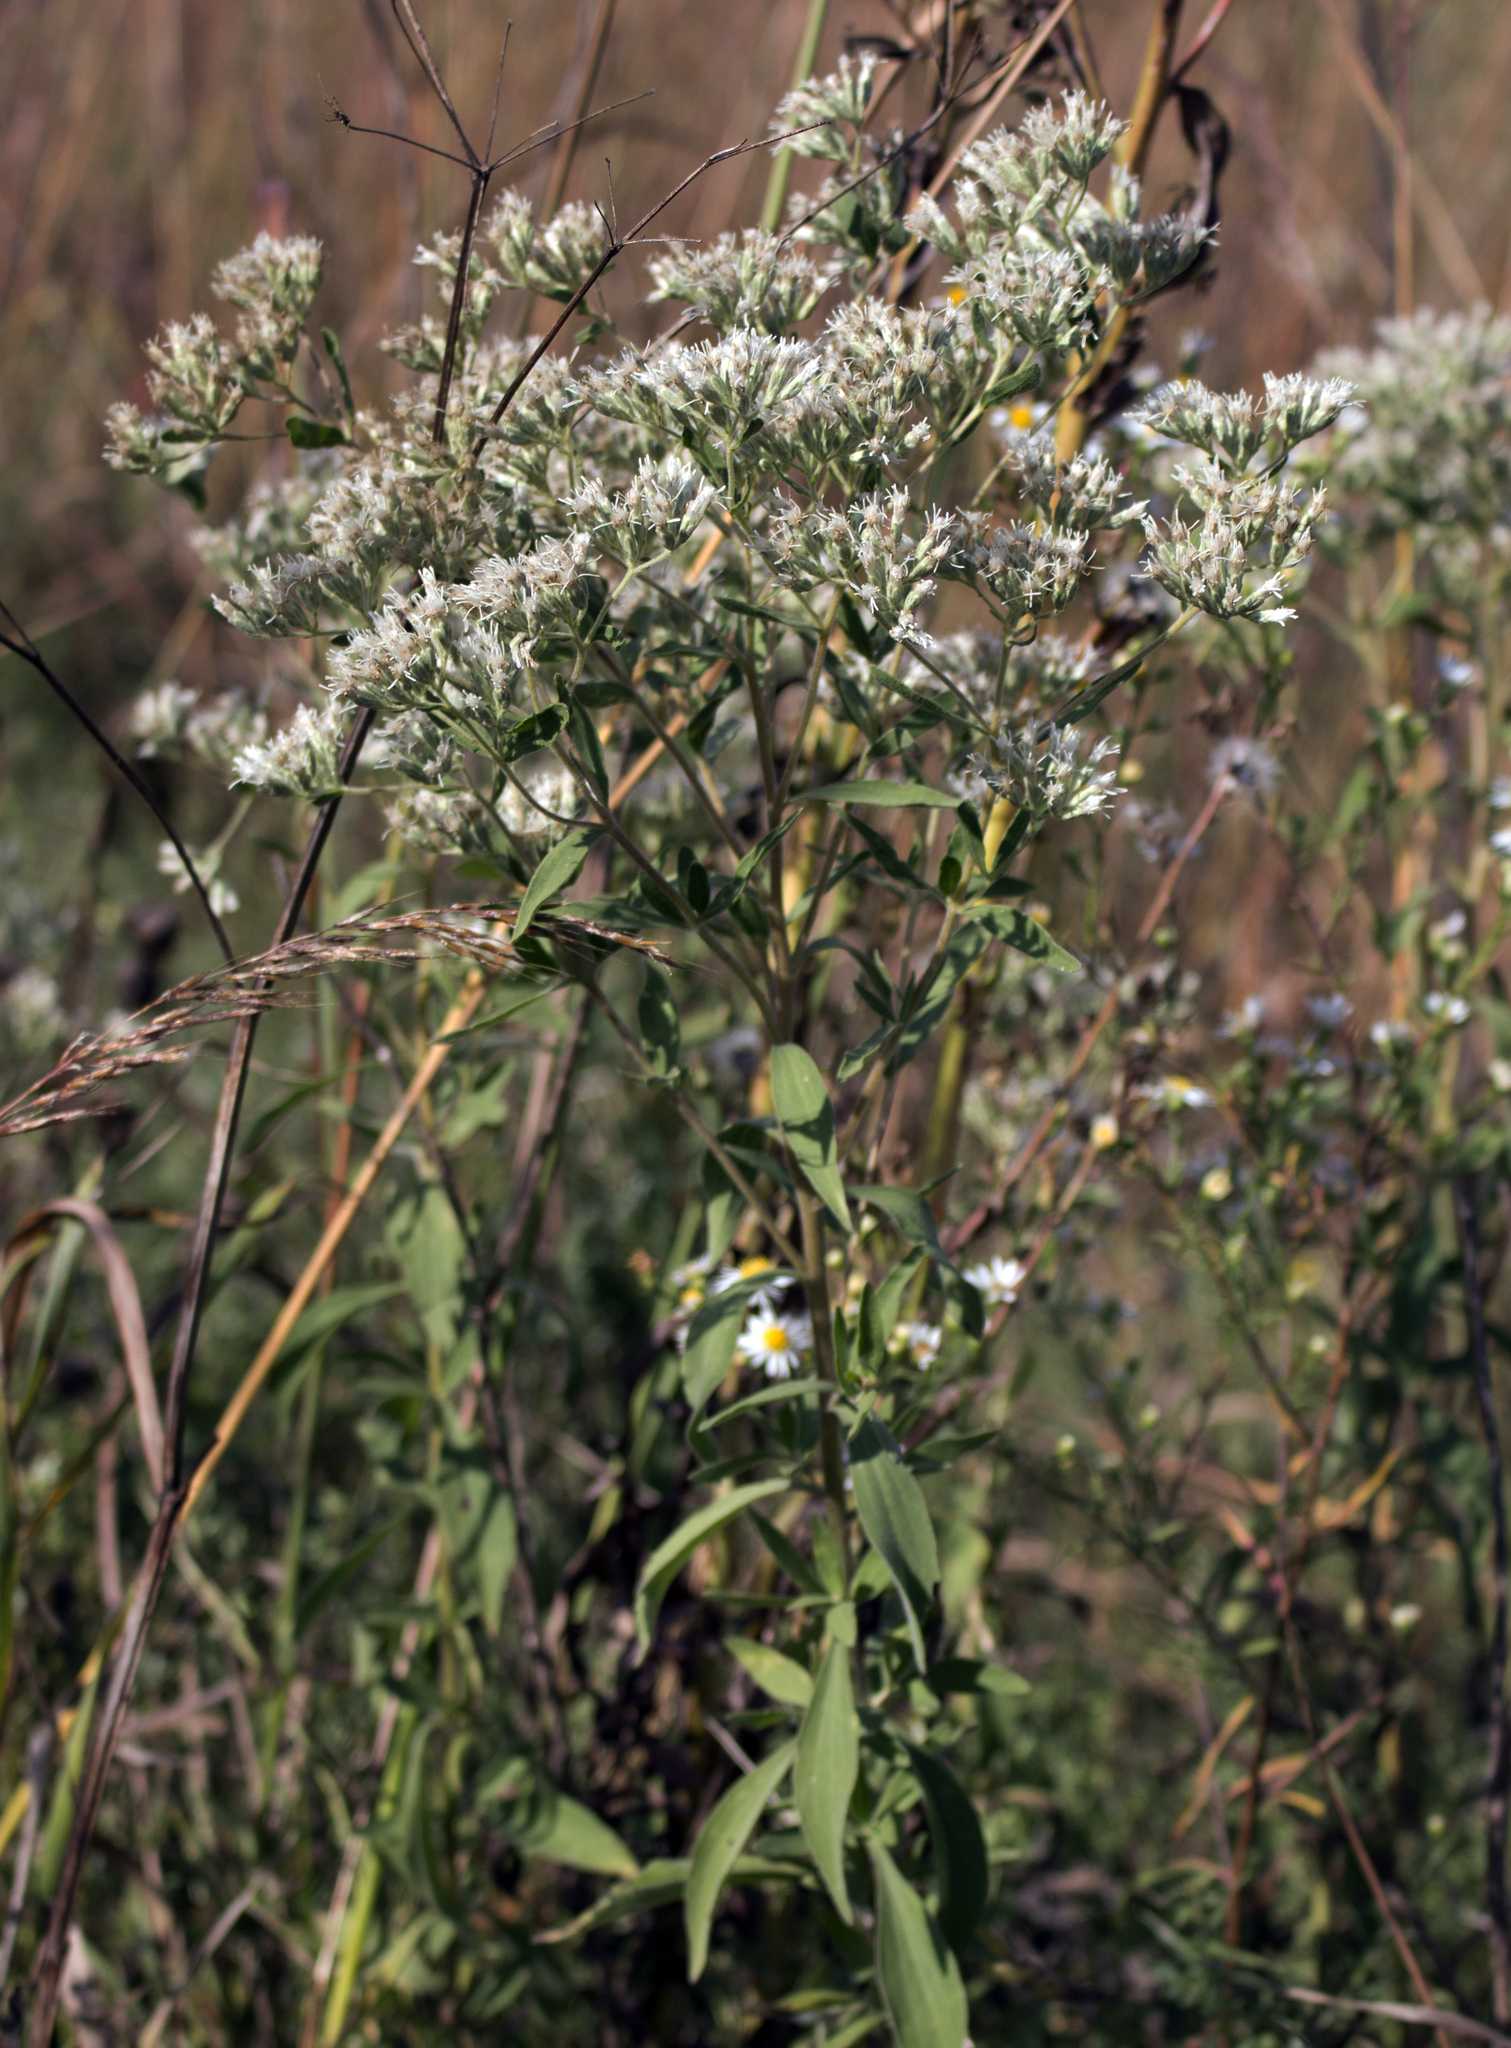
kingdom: Plantae
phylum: Tracheophyta
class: Magnoliopsida
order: Asterales
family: Asteraceae
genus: Eupatorium
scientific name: Eupatorium altissimum
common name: Tall thoroughwort
